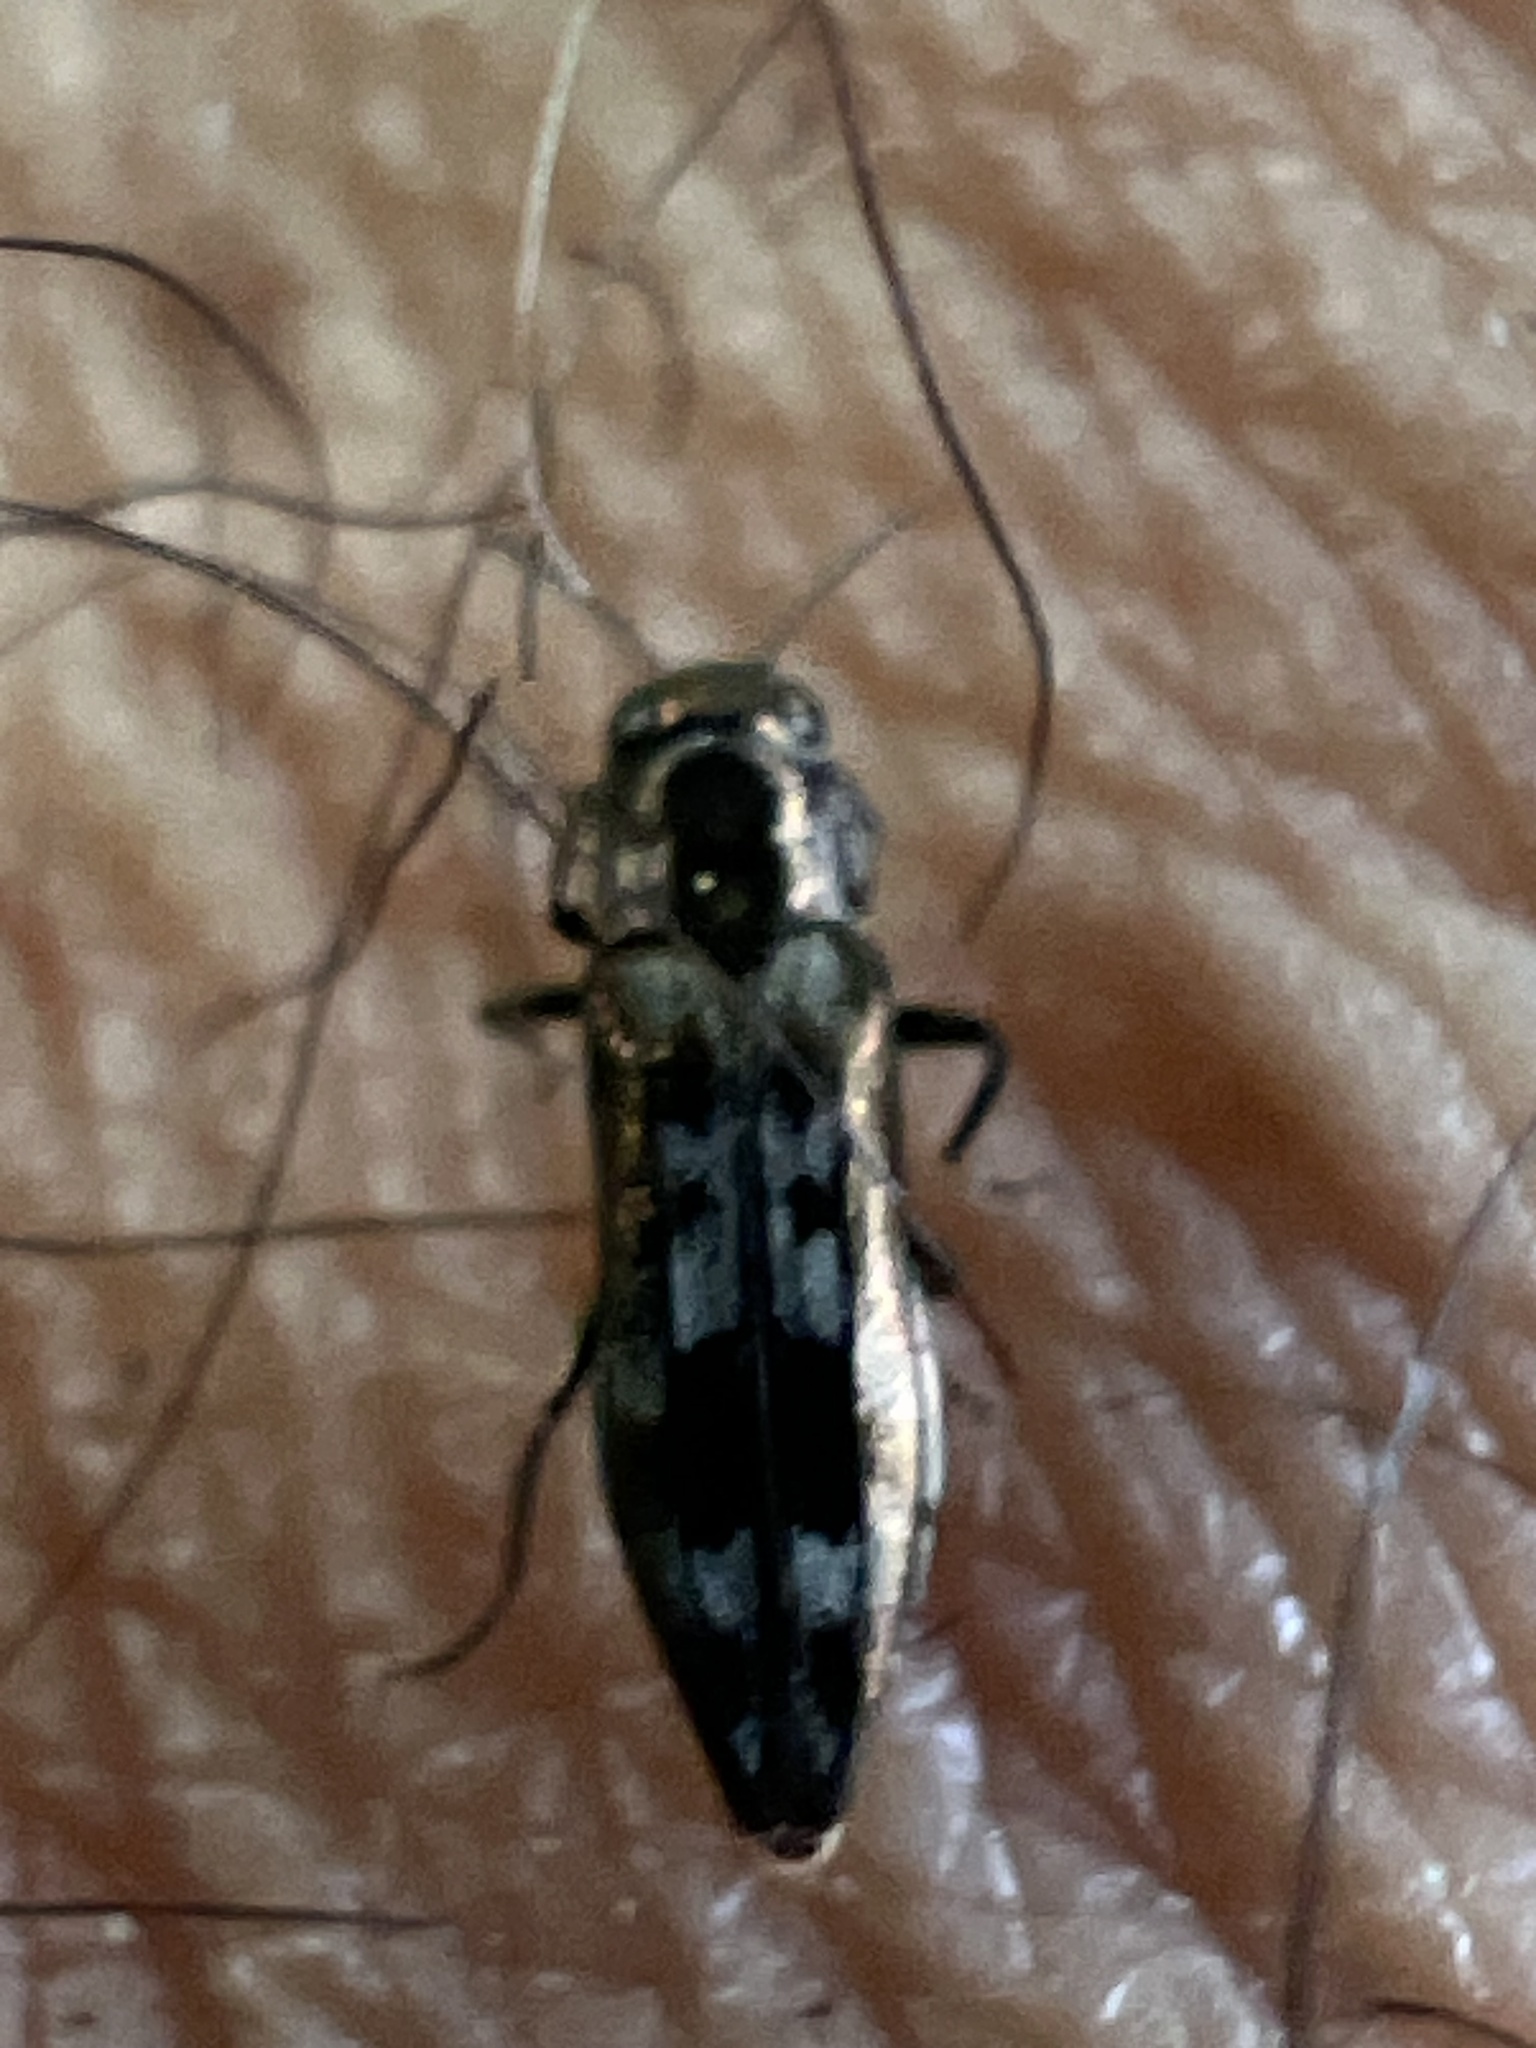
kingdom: Animalia
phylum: Arthropoda
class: Insecta
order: Coleoptera
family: Buprestidae
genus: Agrilus
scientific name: Agrilus lecontei
